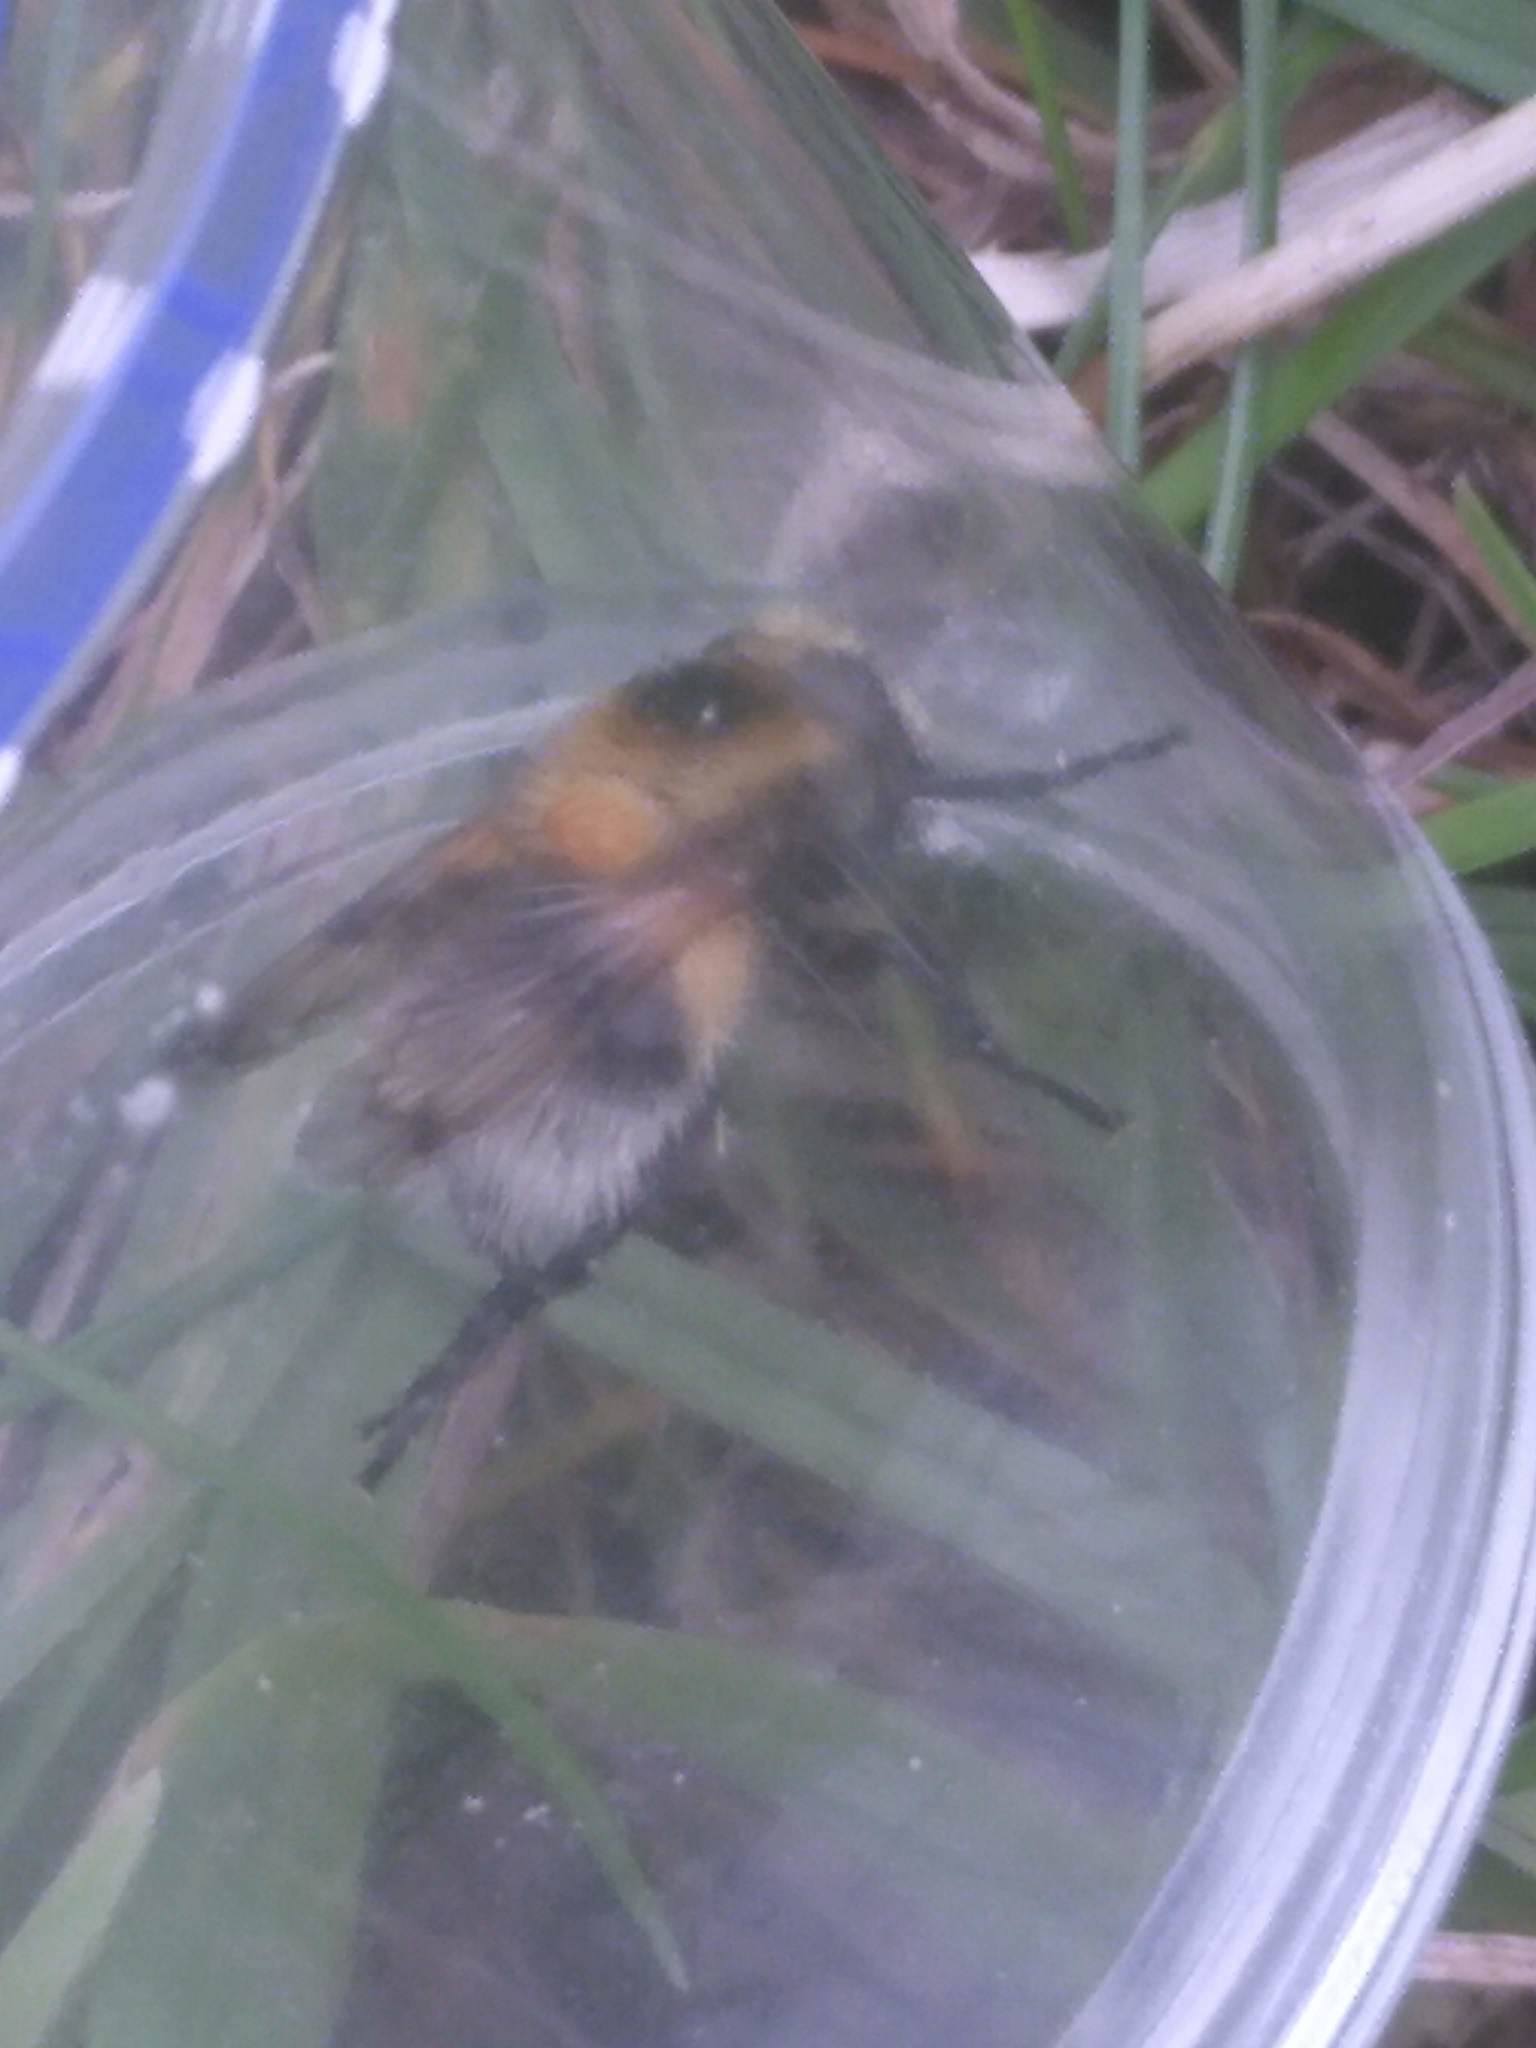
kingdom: Animalia
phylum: Arthropoda
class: Insecta
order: Diptera
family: Syrphidae
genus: Volucella
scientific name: Volucella bombylans
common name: Bumble bee hover fly
